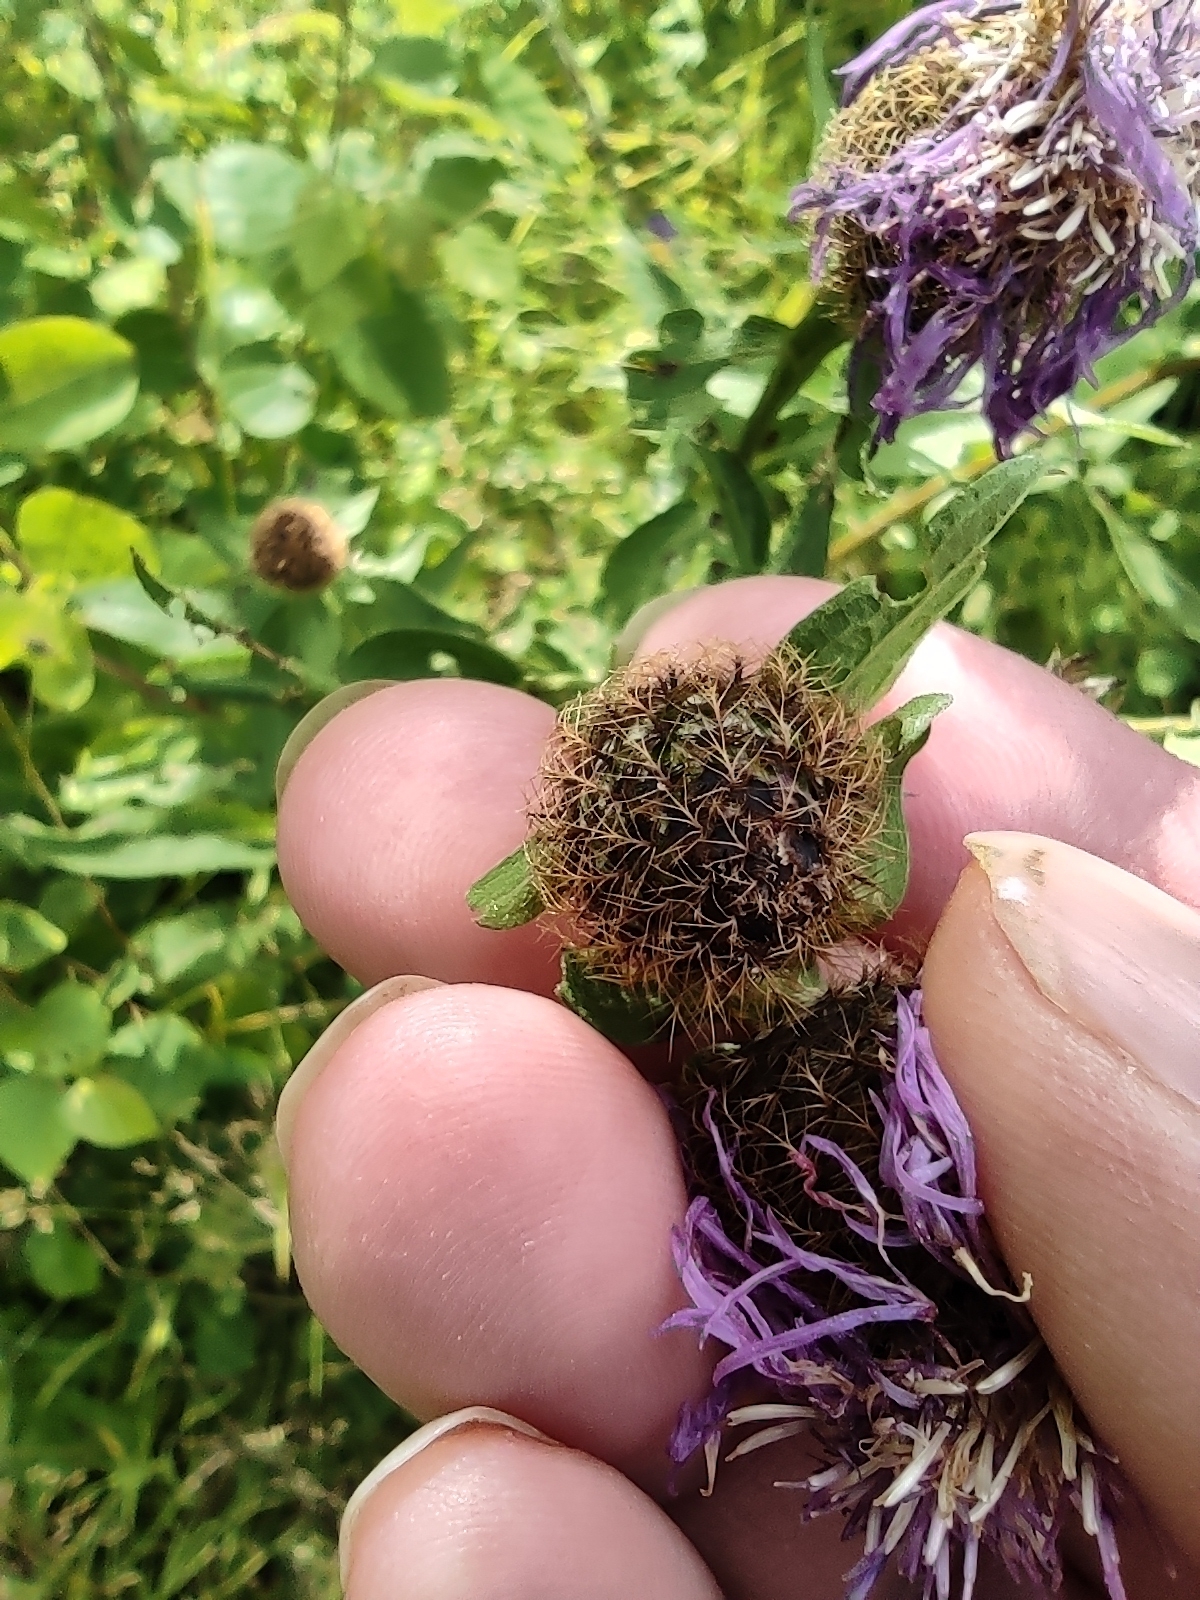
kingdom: Plantae
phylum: Tracheophyta
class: Magnoliopsida
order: Asterales
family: Asteraceae
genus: Centaurea
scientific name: Centaurea pseudophrygia
